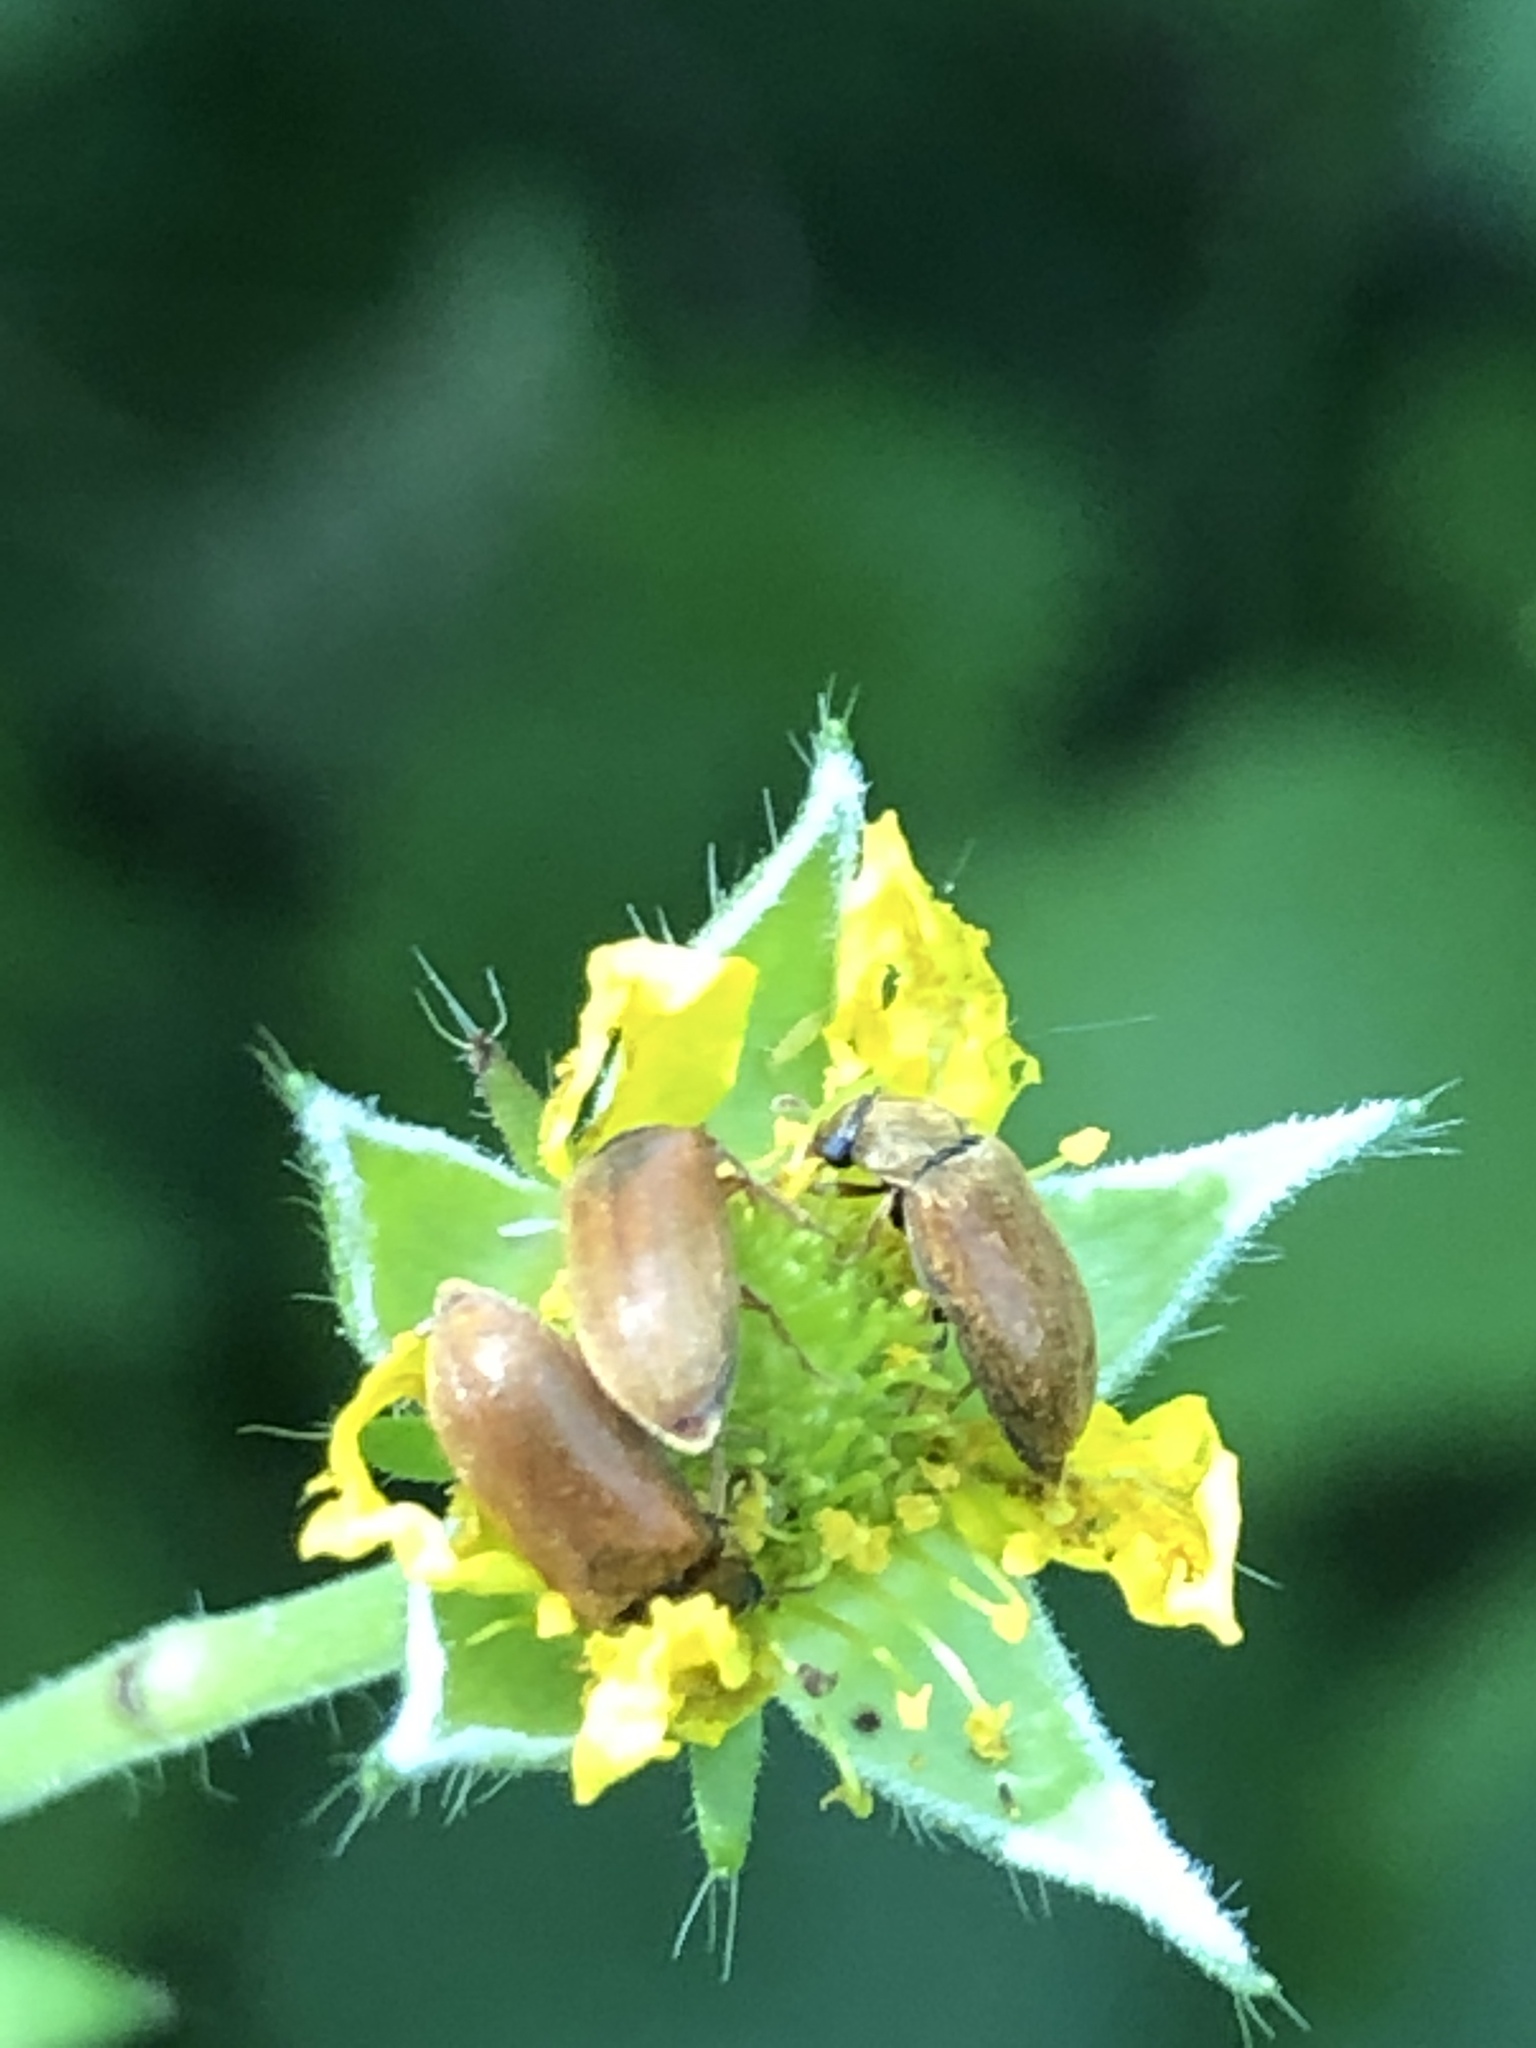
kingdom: Animalia
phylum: Arthropoda
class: Insecta
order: Coleoptera
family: Byturidae
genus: Byturus
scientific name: Byturus ochraceus
